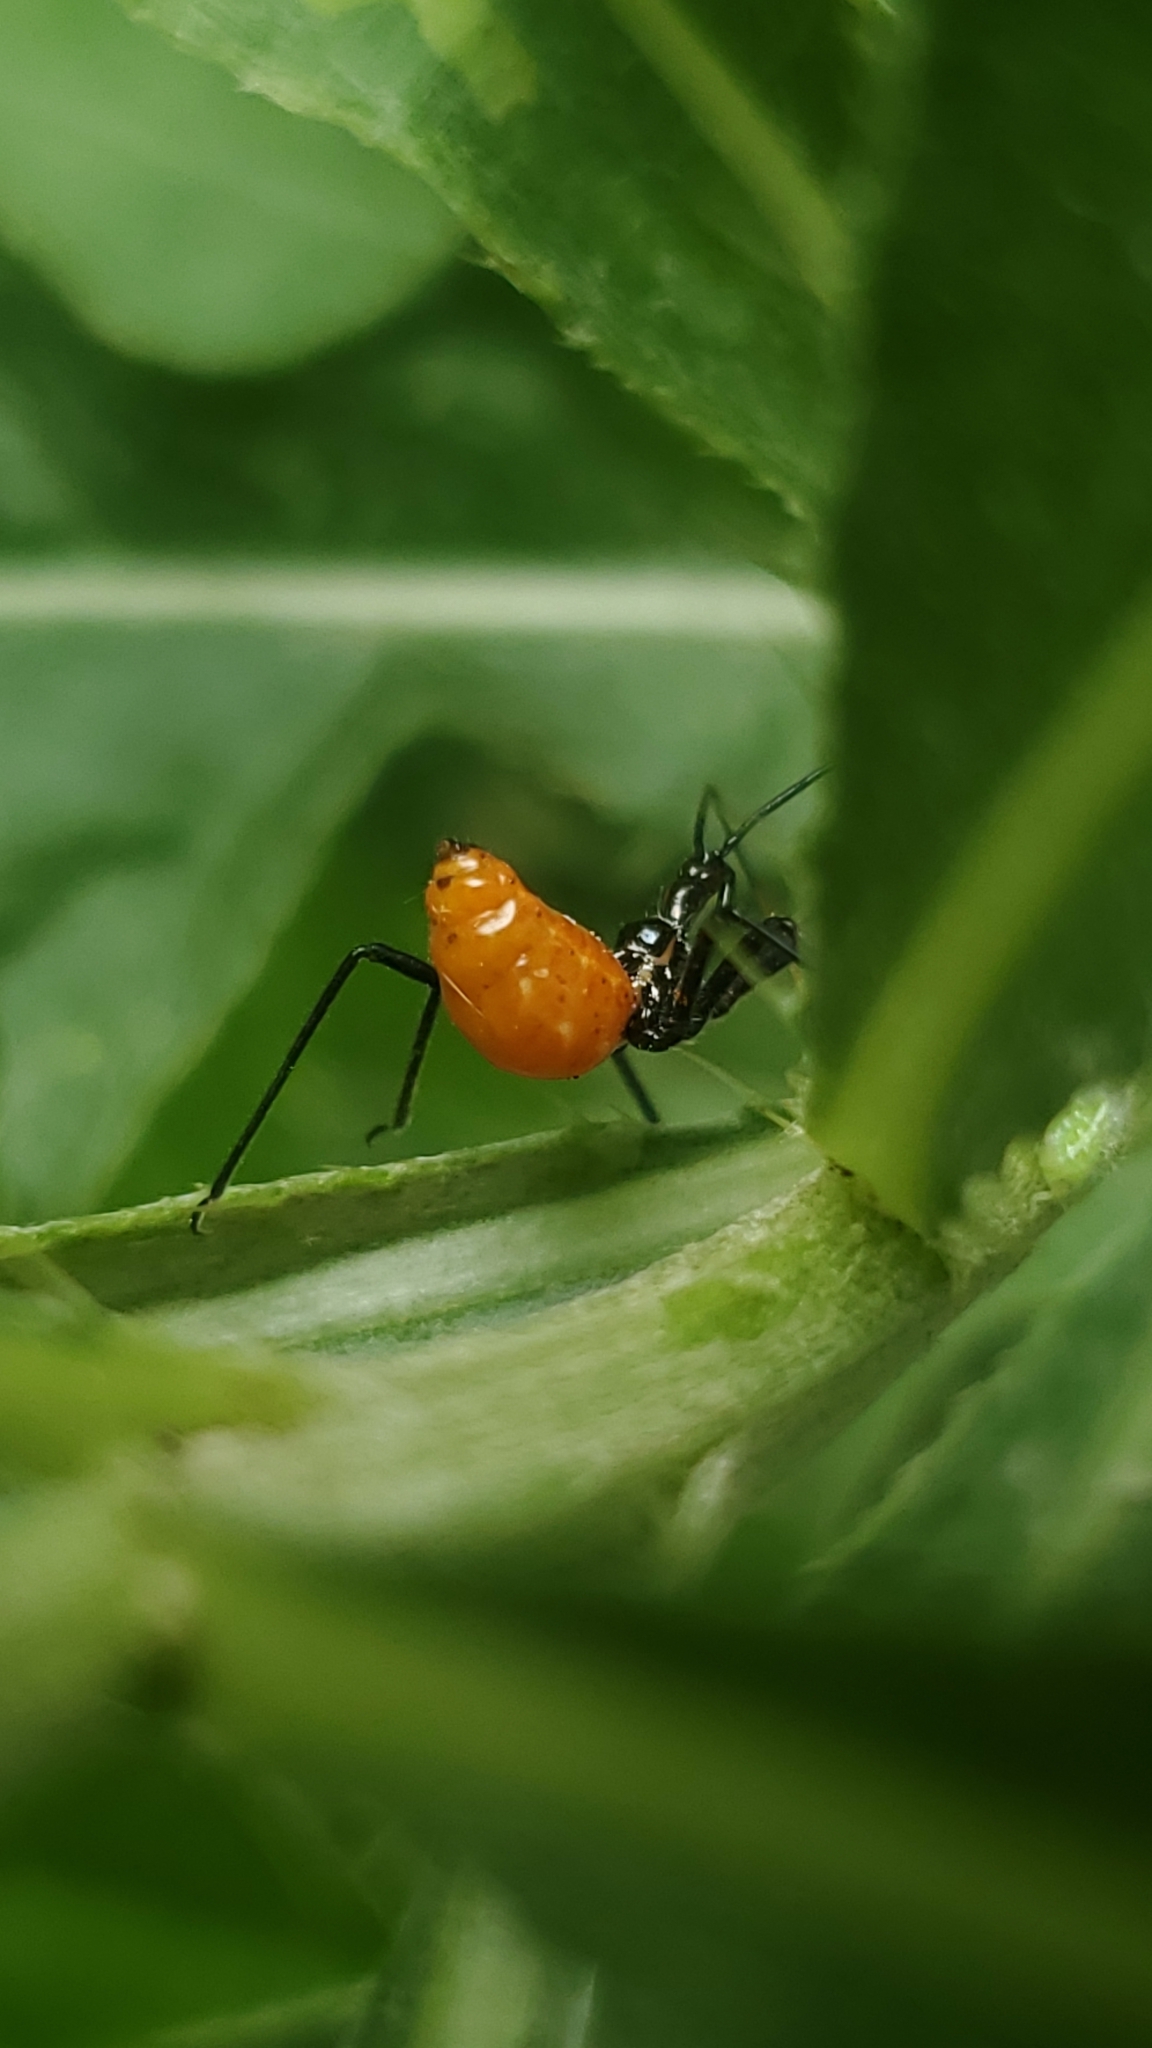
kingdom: Animalia
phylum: Arthropoda
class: Insecta
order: Hemiptera
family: Reduviidae
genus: Arilus
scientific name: Arilus cristatus
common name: North american wheel bug
